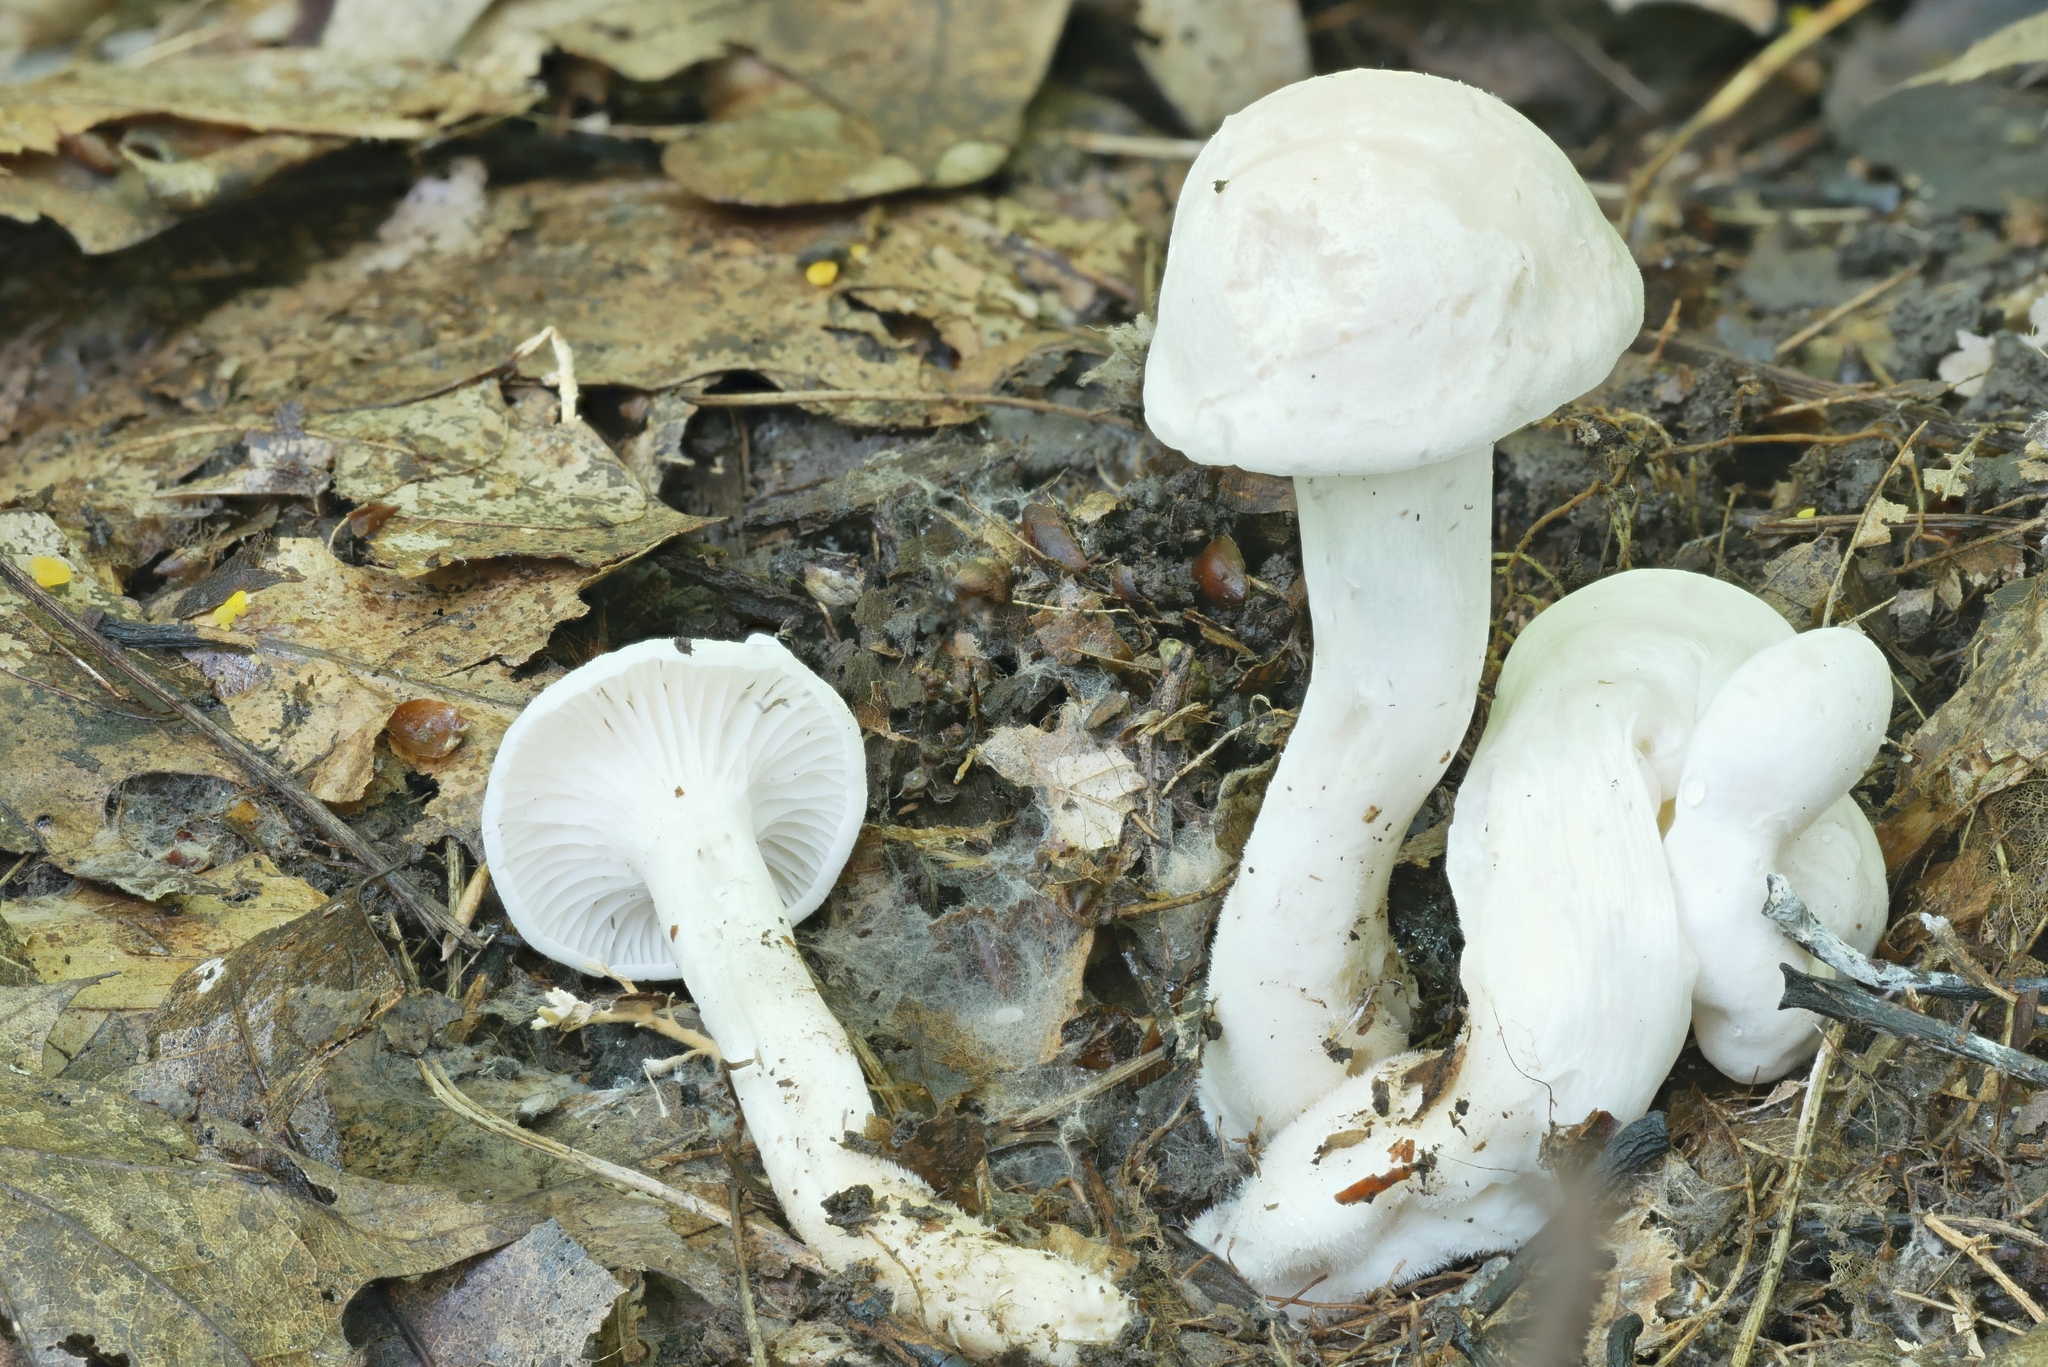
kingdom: Fungi
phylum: Basidiomycota
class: Agaricomycetes
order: Agaricales
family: Hygrophoraceae
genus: Hygrocybe
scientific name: Hygrocybe angustifolia
